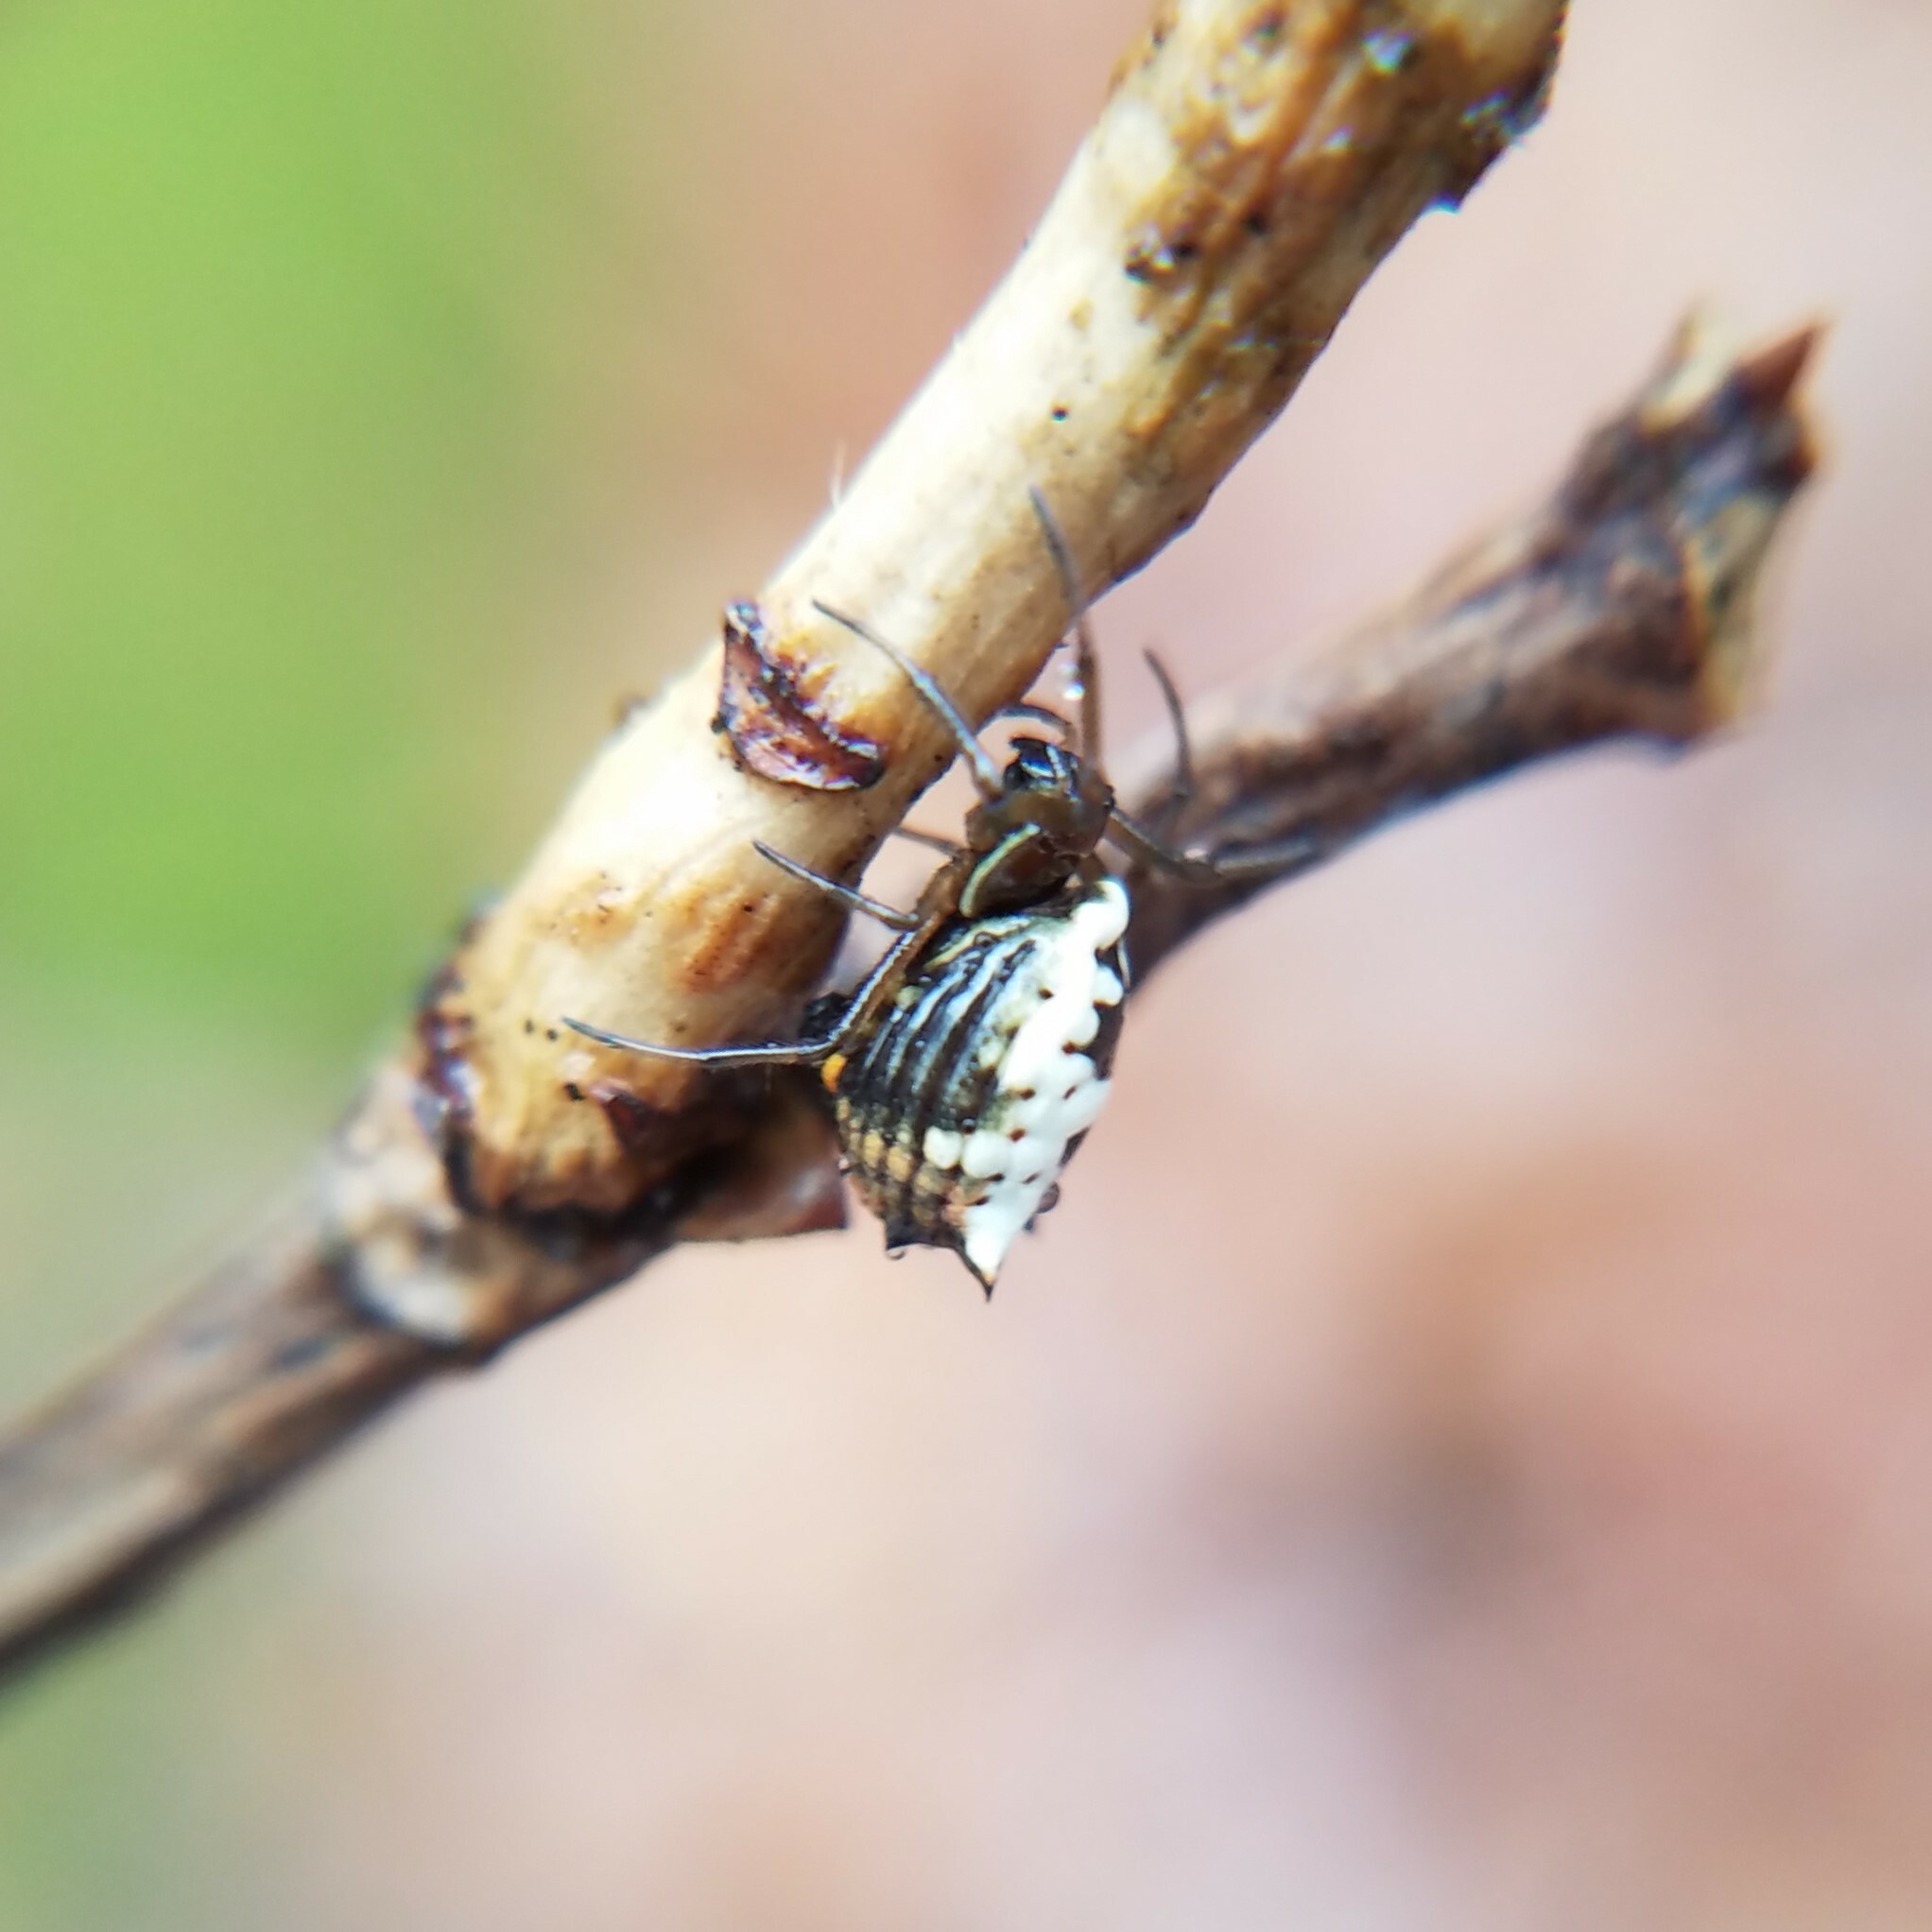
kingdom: Animalia
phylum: Arthropoda
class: Arachnida
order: Araneae
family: Araneidae
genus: Micrathena
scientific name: Micrathena mitrata
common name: Orb weavers
